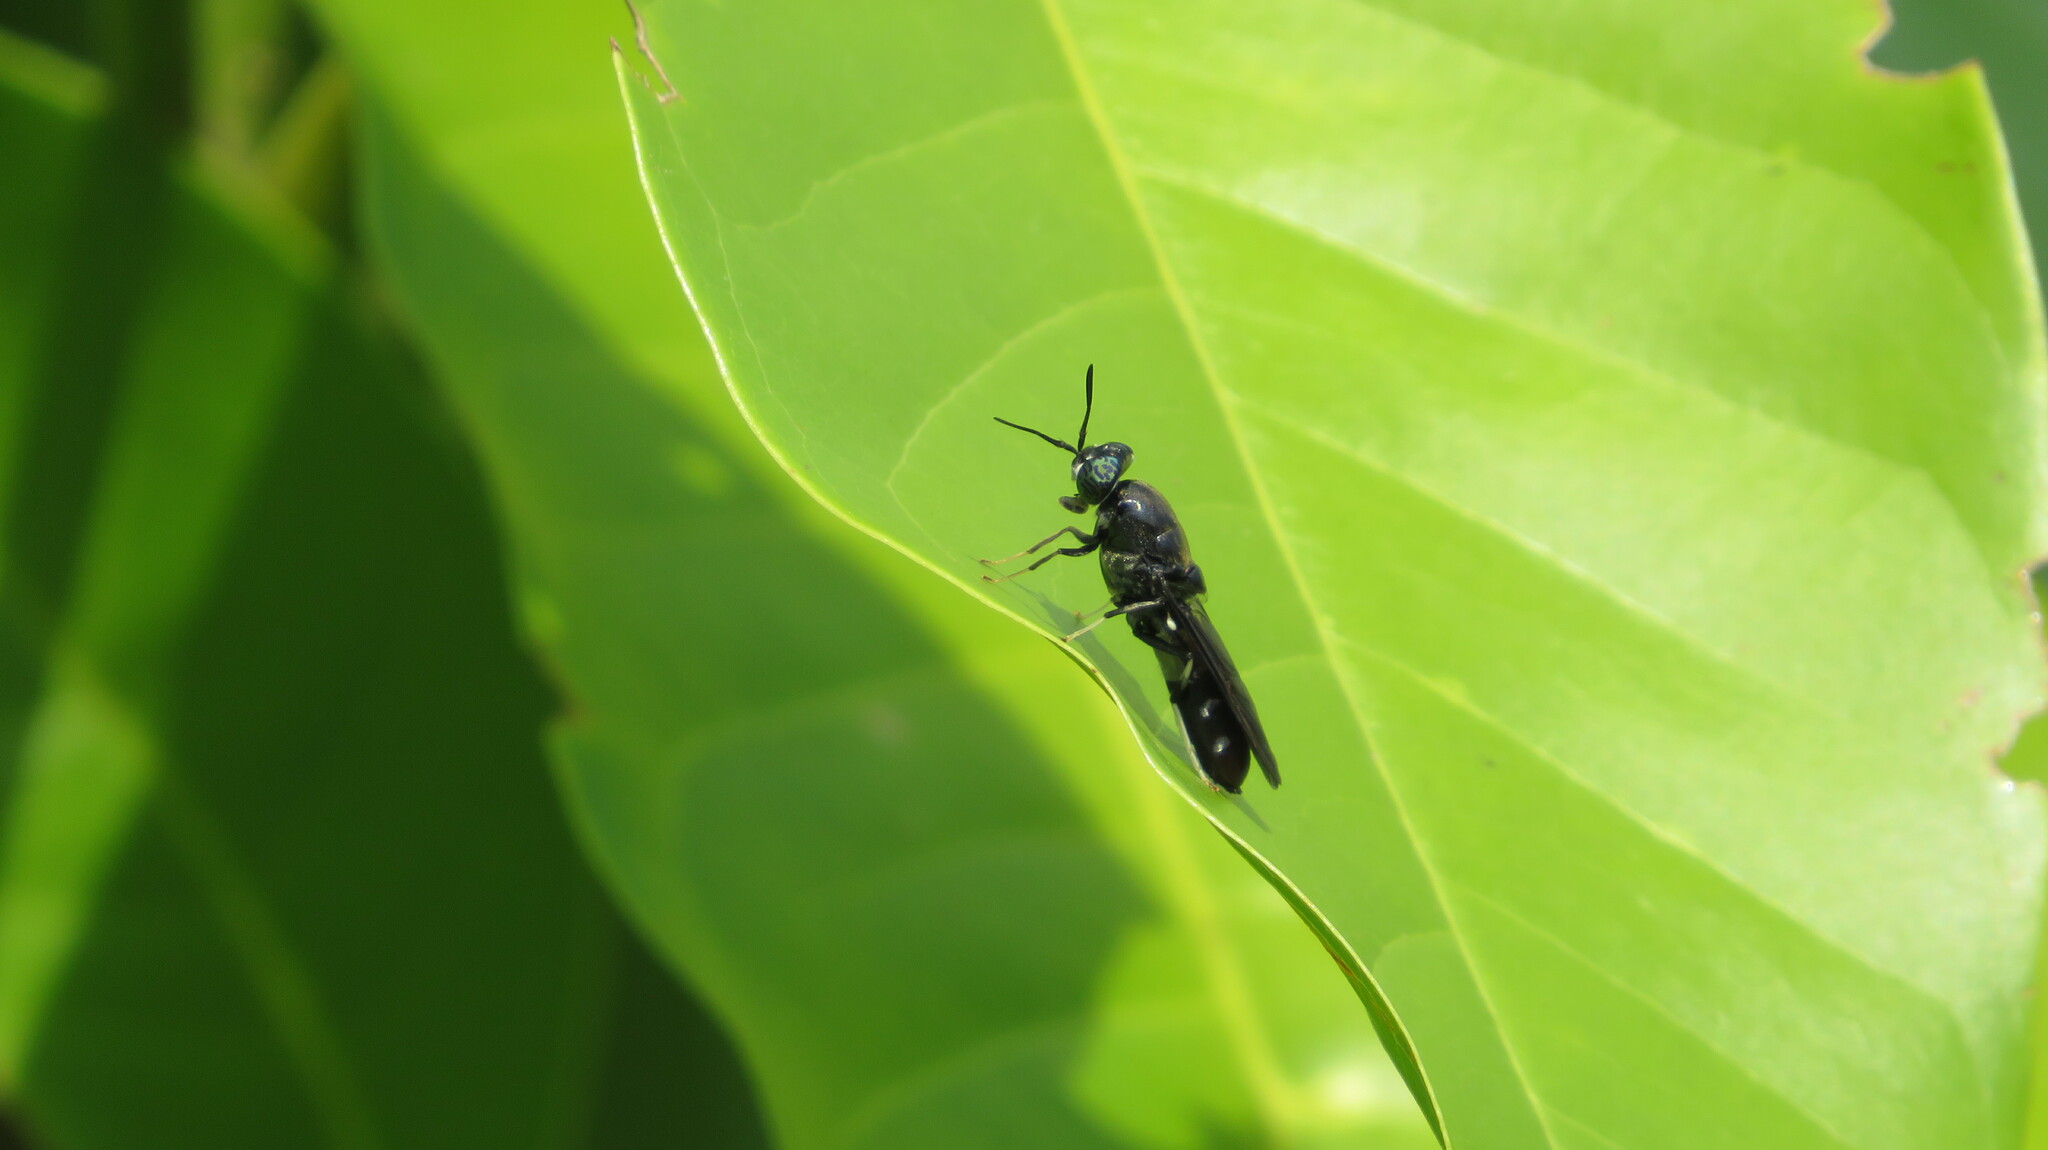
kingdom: Animalia
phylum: Arthropoda
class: Insecta
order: Diptera
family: Stratiomyidae
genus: Hermetia
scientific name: Hermetia illucens
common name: Black soldier fly
